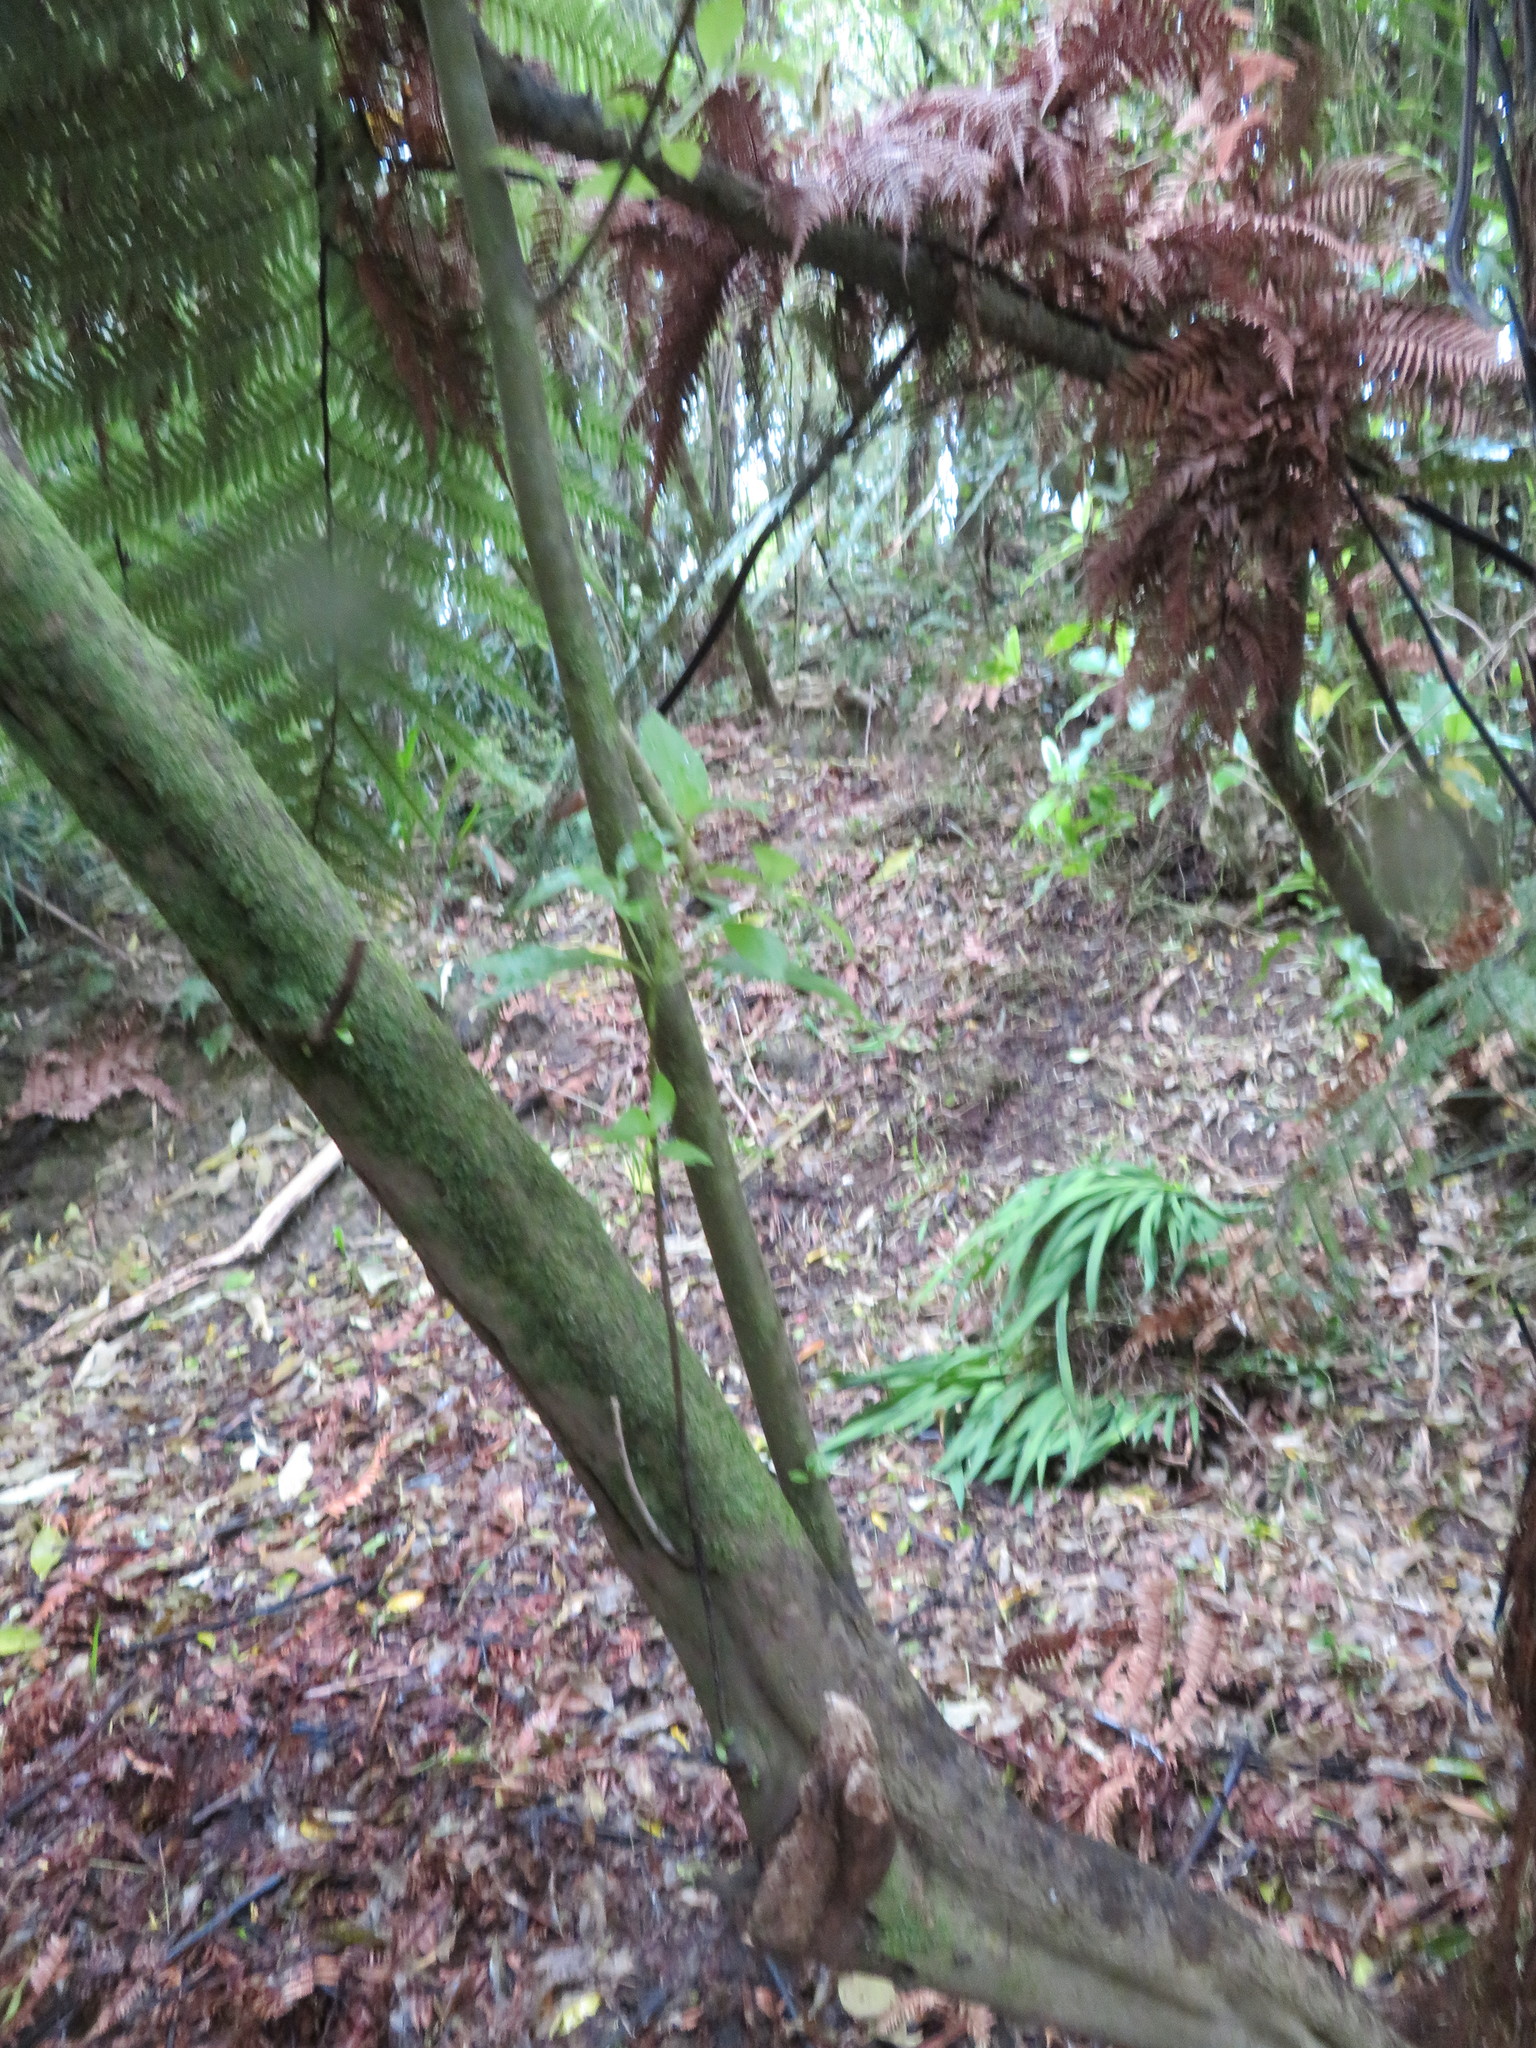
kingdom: Plantae
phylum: Tracheophyta
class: Liliopsida
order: Asparagales
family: Iridaceae
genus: Crocosmia
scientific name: Crocosmia crocosmiiflora
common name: Montbretia
